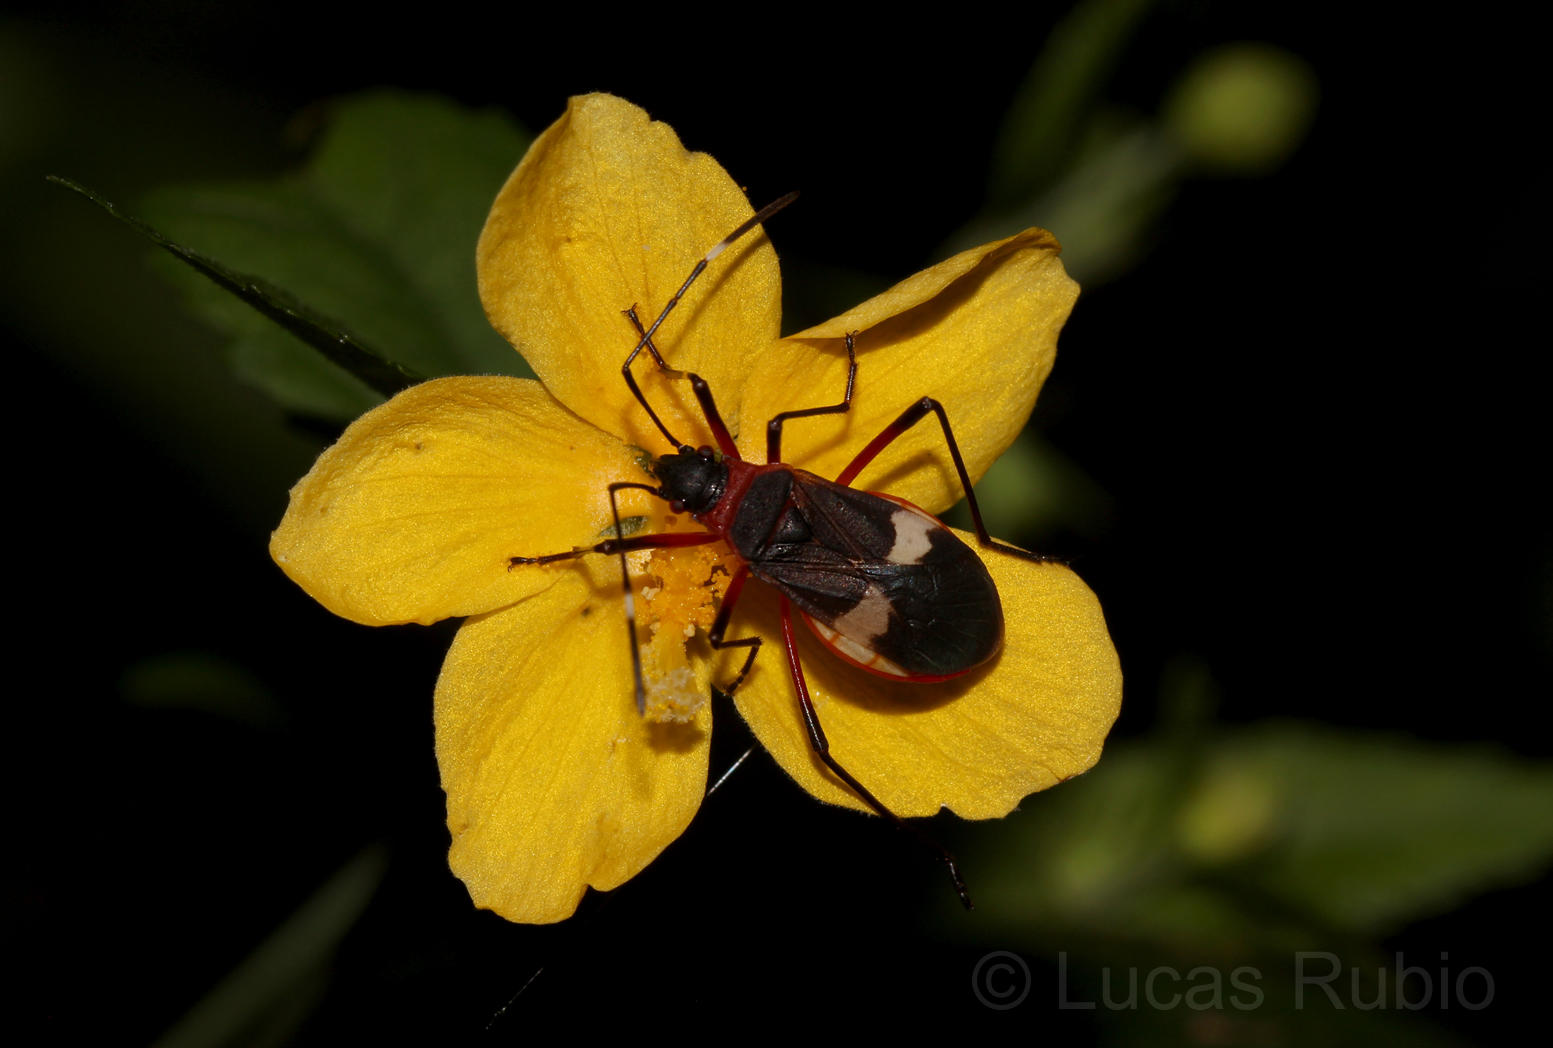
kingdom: Animalia
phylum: Arthropoda
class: Insecta
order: Hemiptera
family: Pyrrhocoridae
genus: Dysdercus
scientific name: Dysdercus albofasciatus
